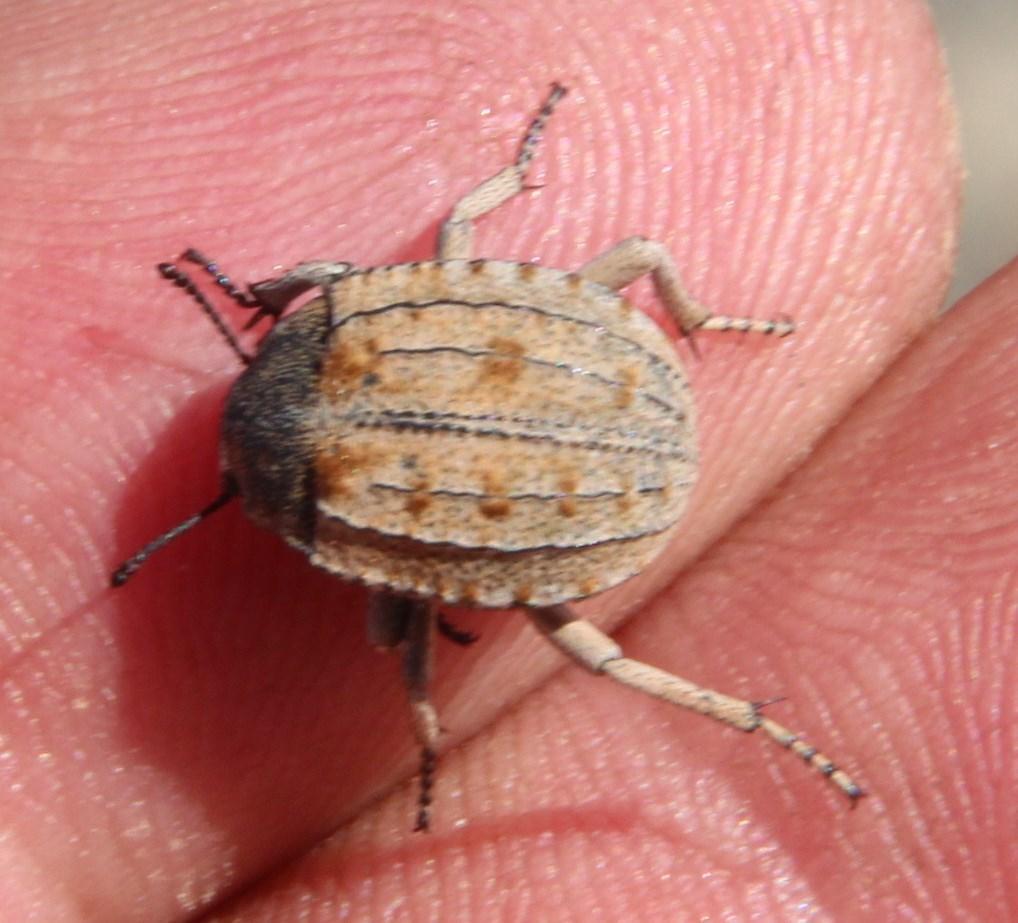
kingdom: Animalia
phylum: Arthropoda
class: Insecta
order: Coleoptera
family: Tenebrionidae
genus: Cryptochile
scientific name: Cryptochile
